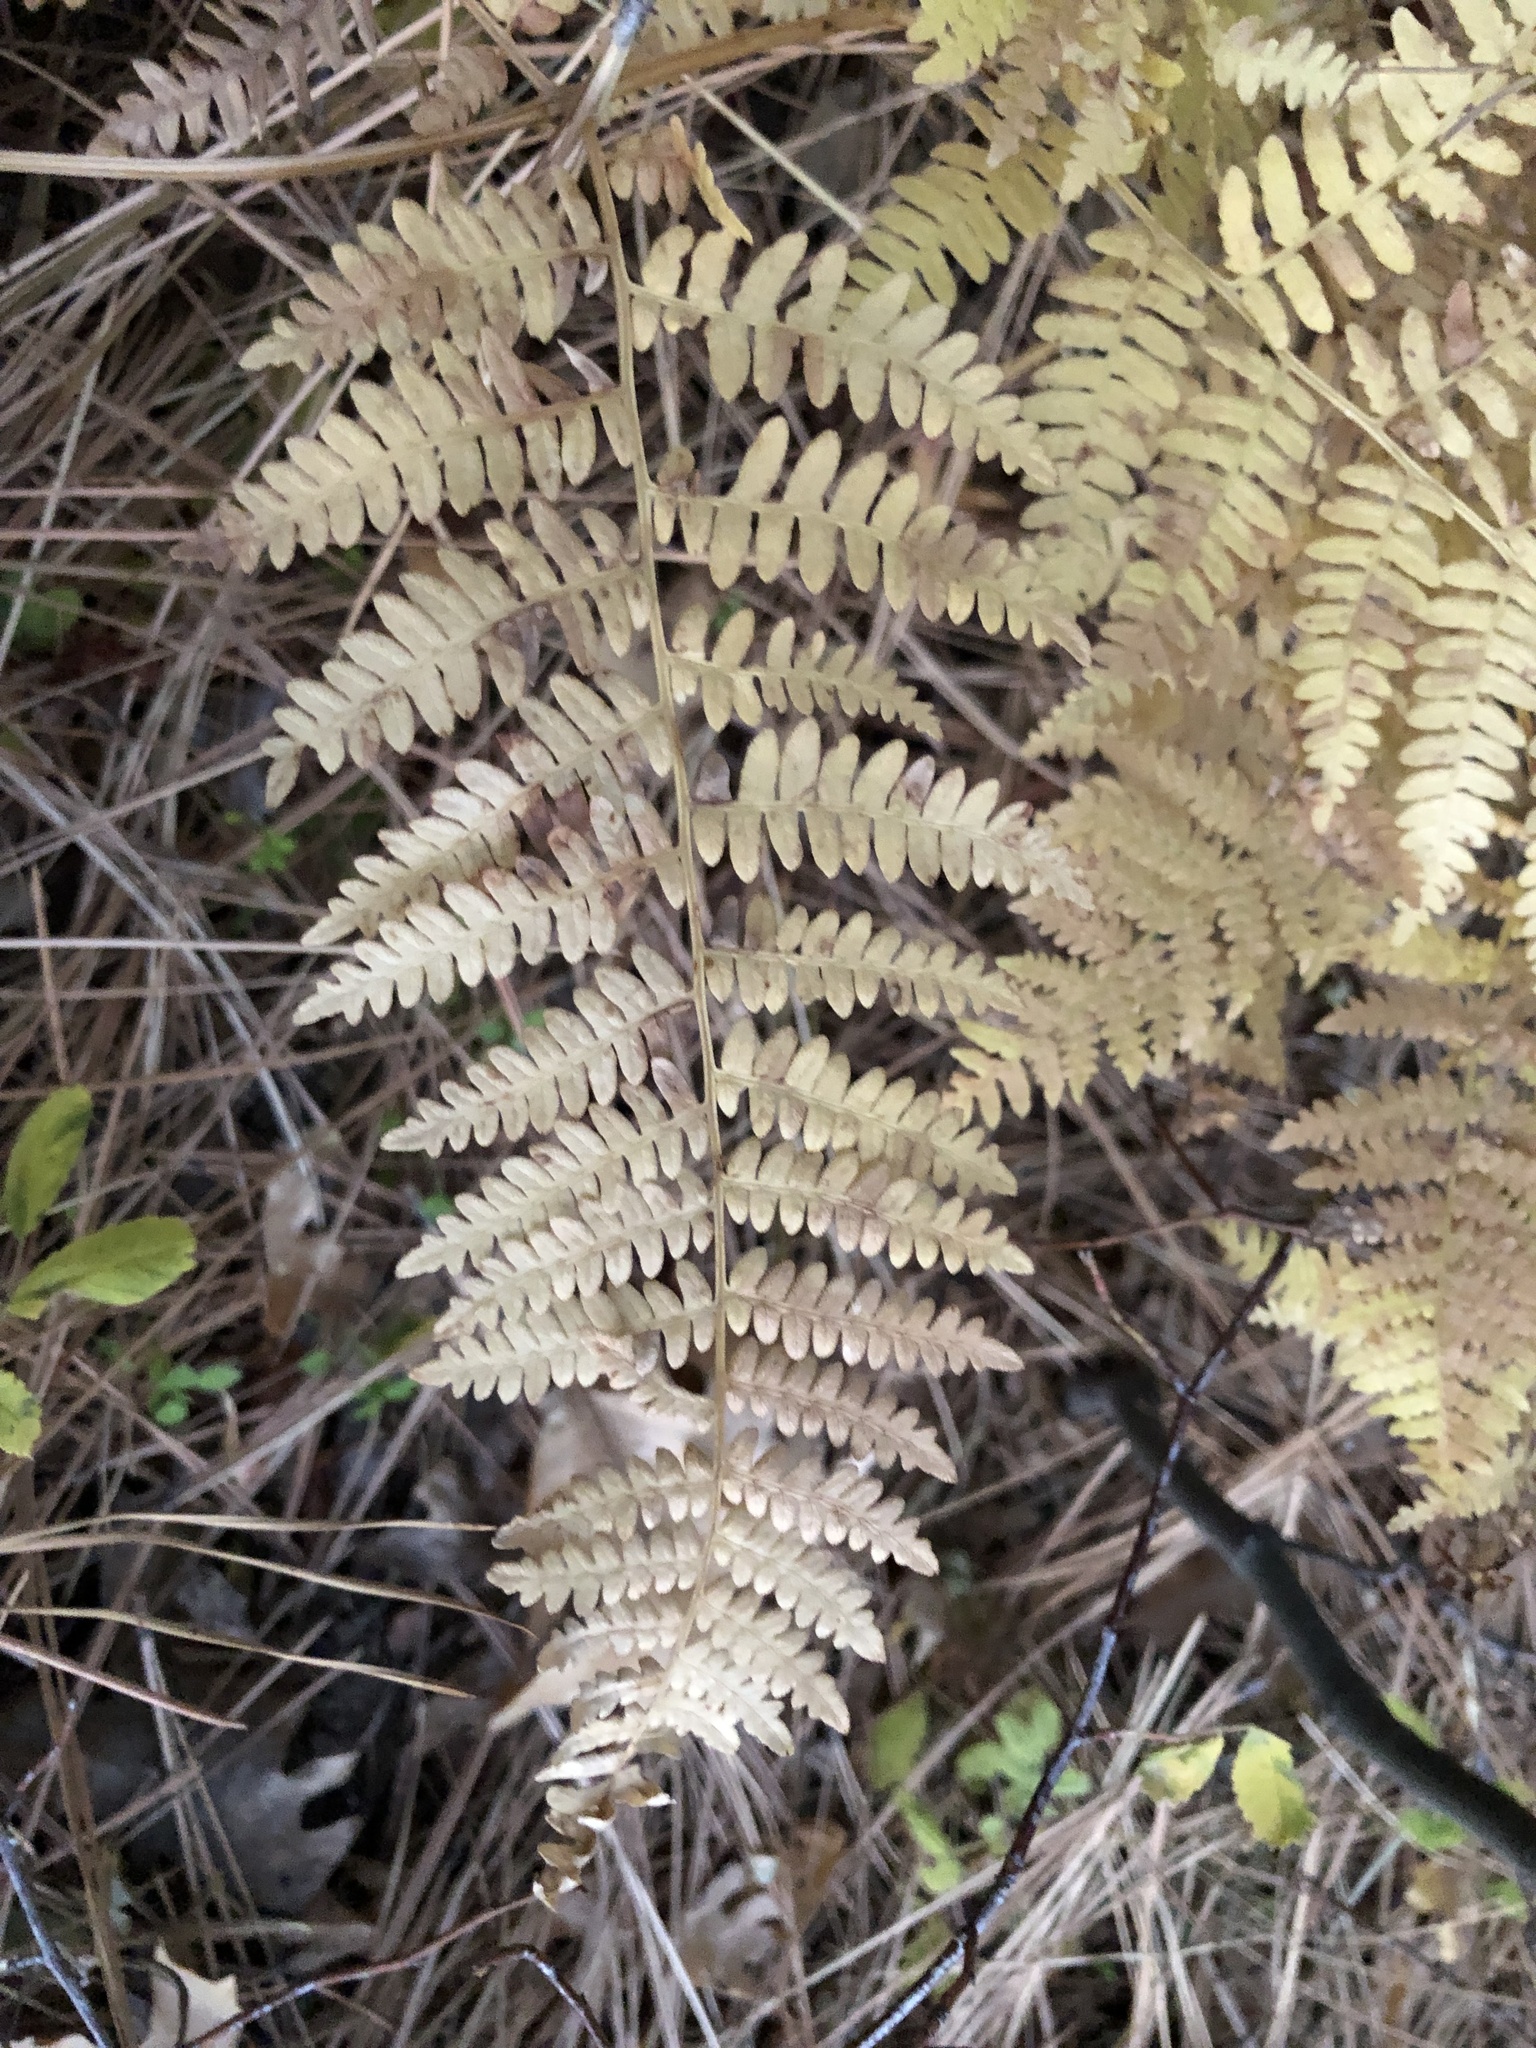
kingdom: Plantae
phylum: Tracheophyta
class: Polypodiopsida
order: Polypodiales
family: Dennstaedtiaceae
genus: Pteridium
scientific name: Pteridium aquilinum
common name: Bracken
